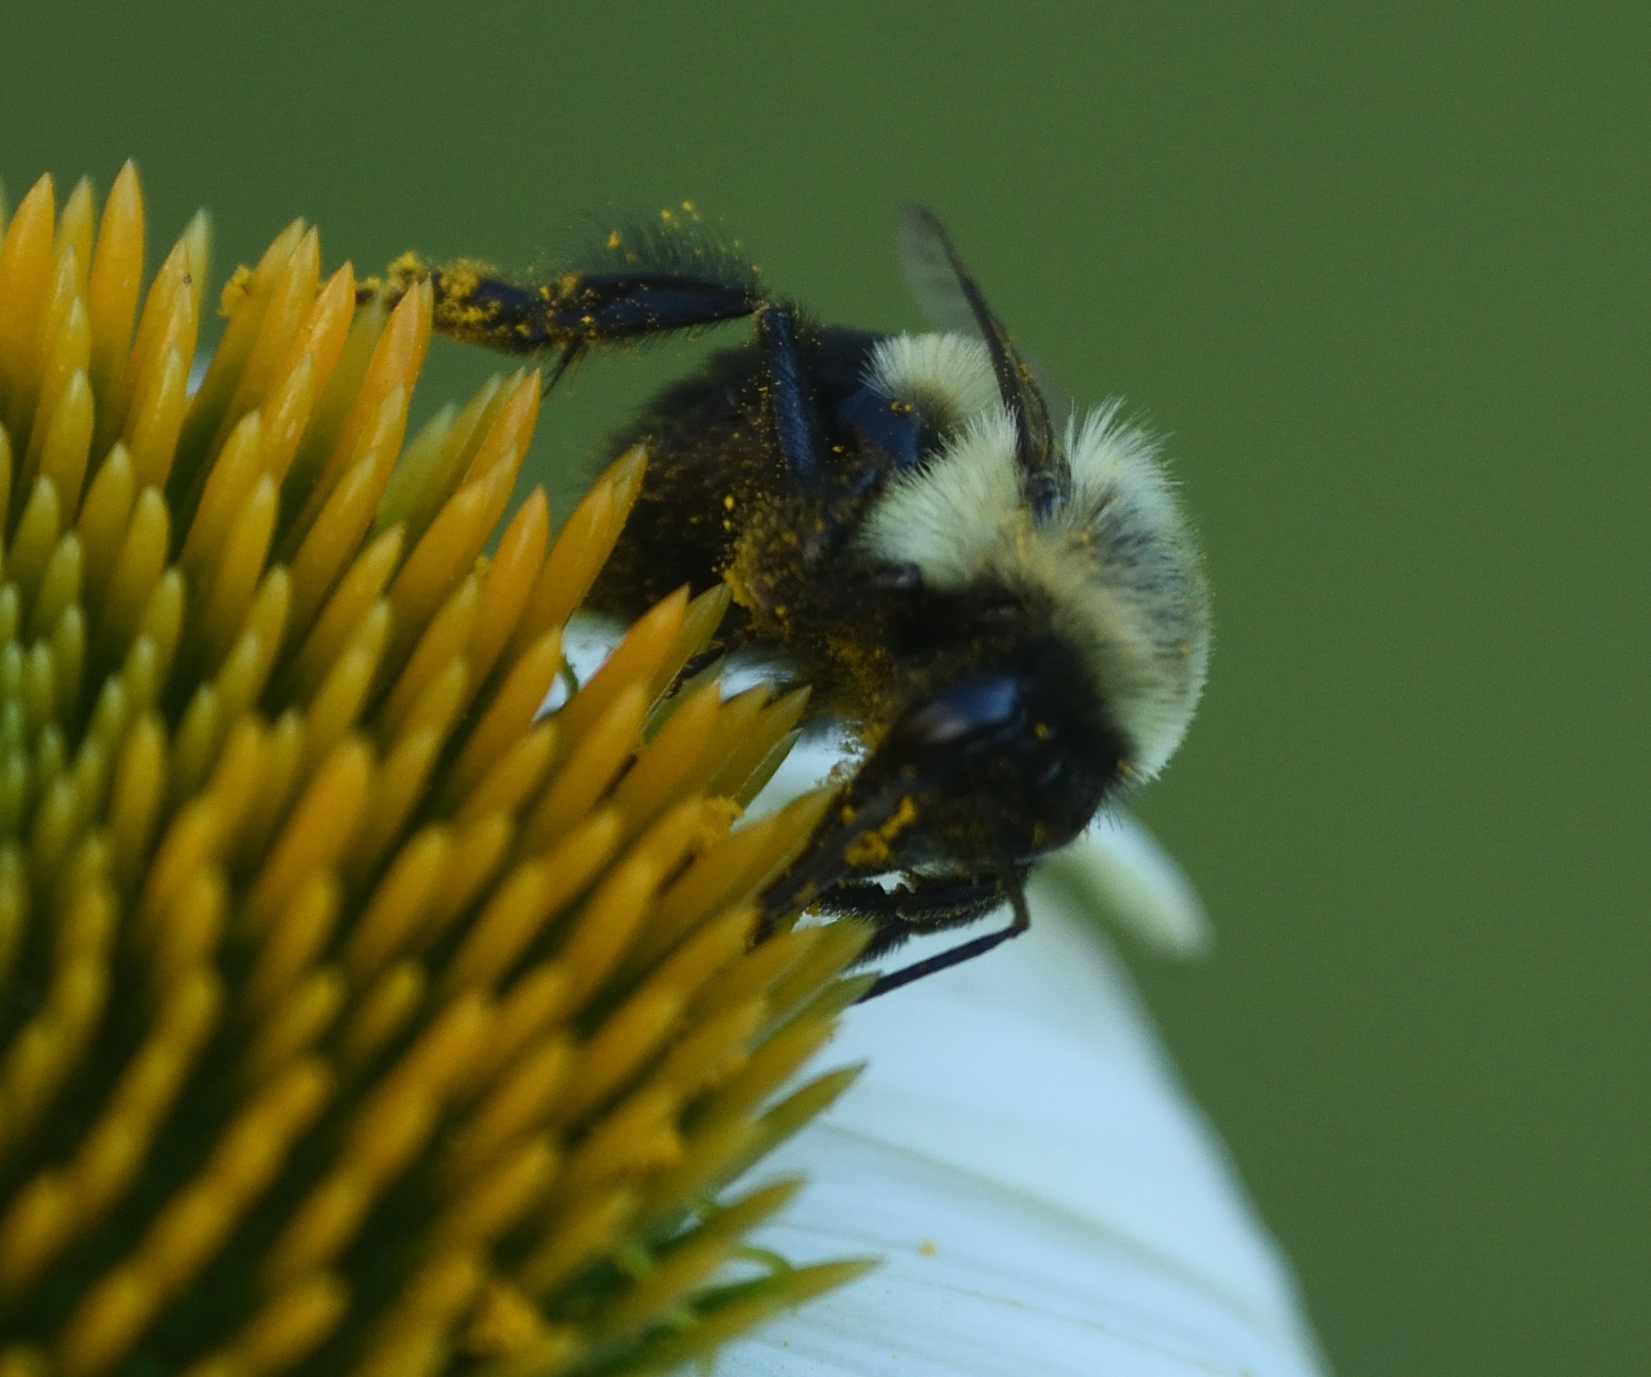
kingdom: Animalia
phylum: Arthropoda
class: Insecta
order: Hymenoptera
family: Apidae
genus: Bombus
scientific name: Bombus impatiens
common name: Common eastern bumble bee
